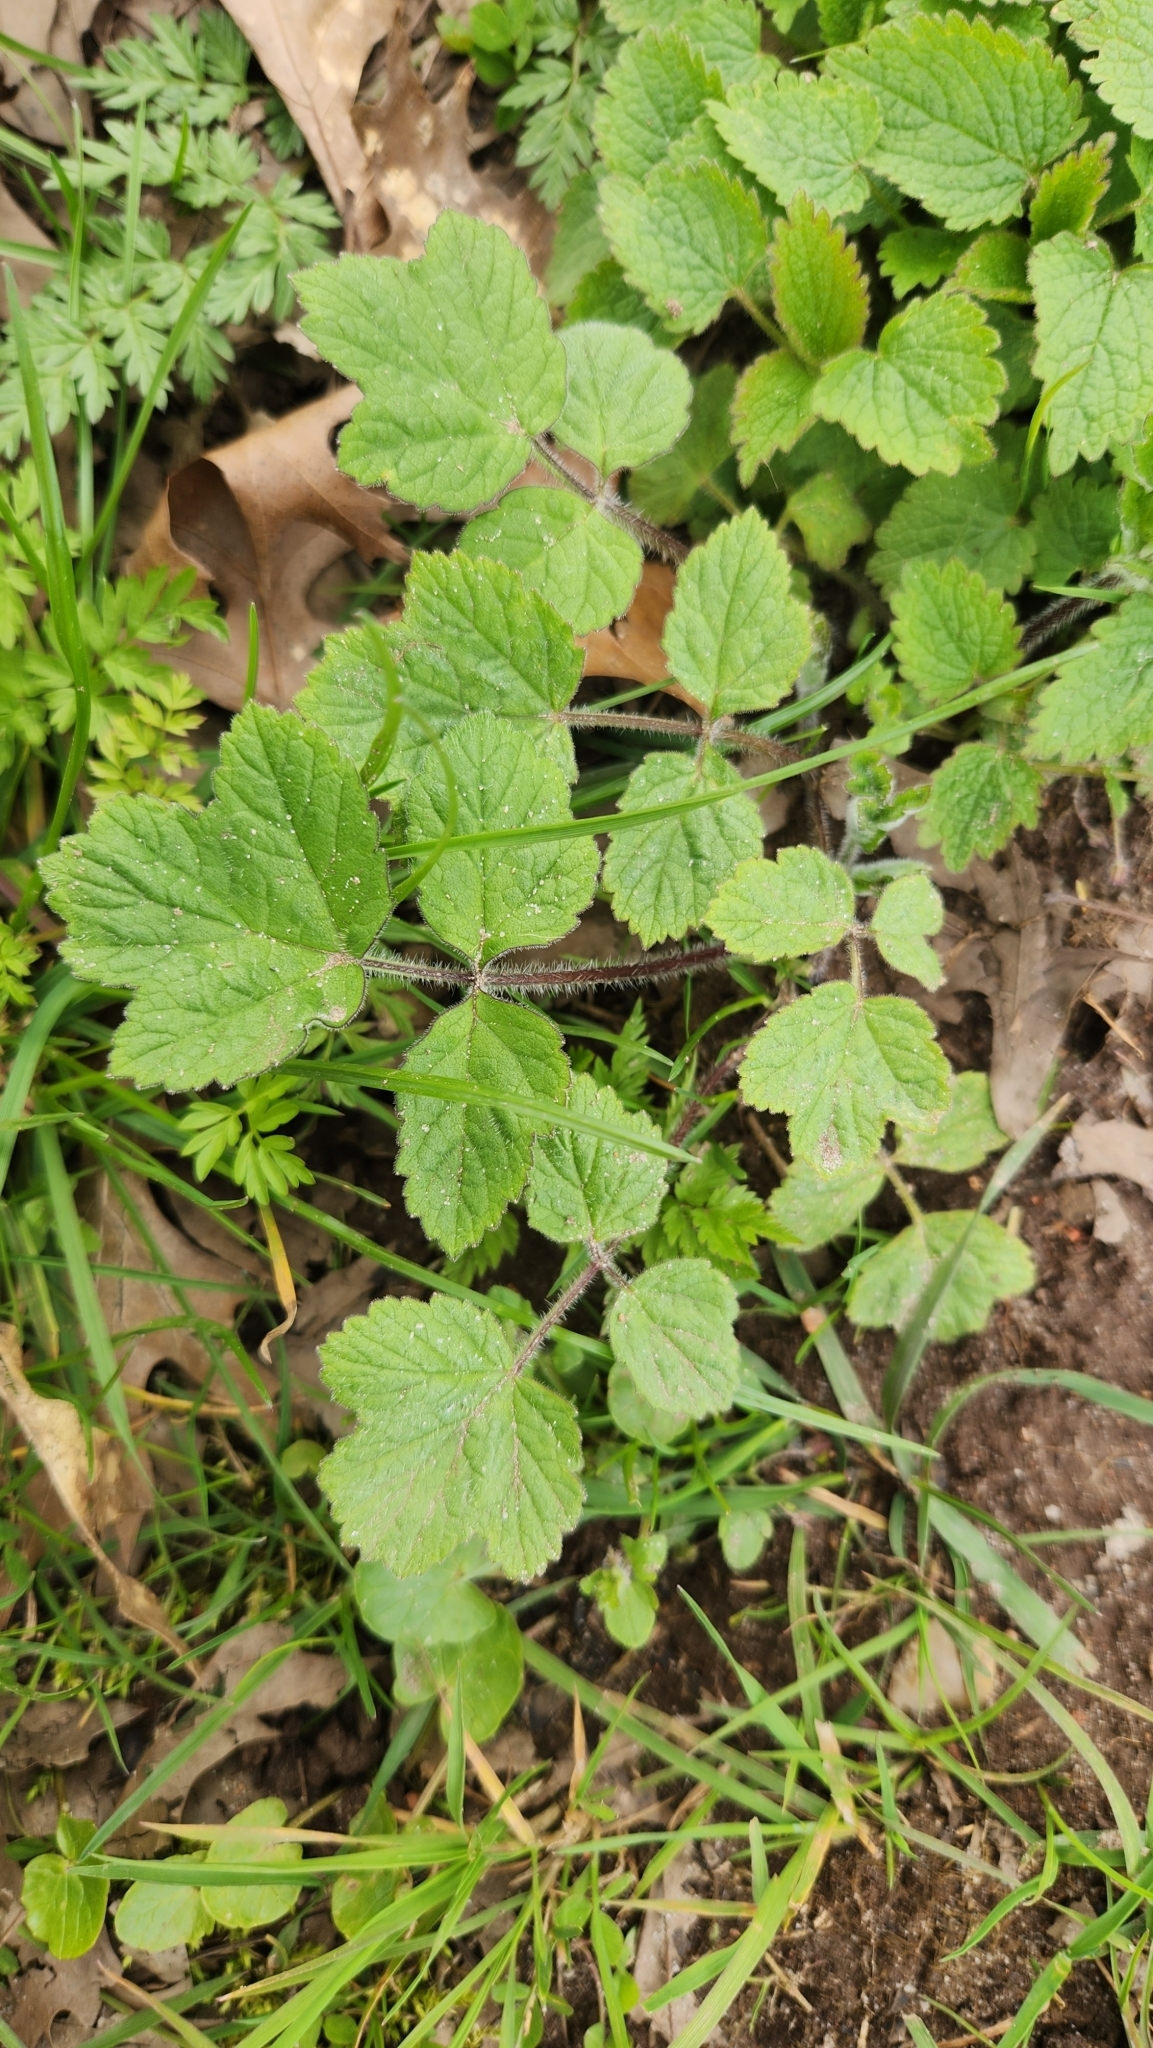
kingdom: Plantae
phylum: Tracheophyta
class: Magnoliopsida
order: Apiales
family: Apiaceae
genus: Heracleum
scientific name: Heracleum sphondylium
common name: Hogweed
